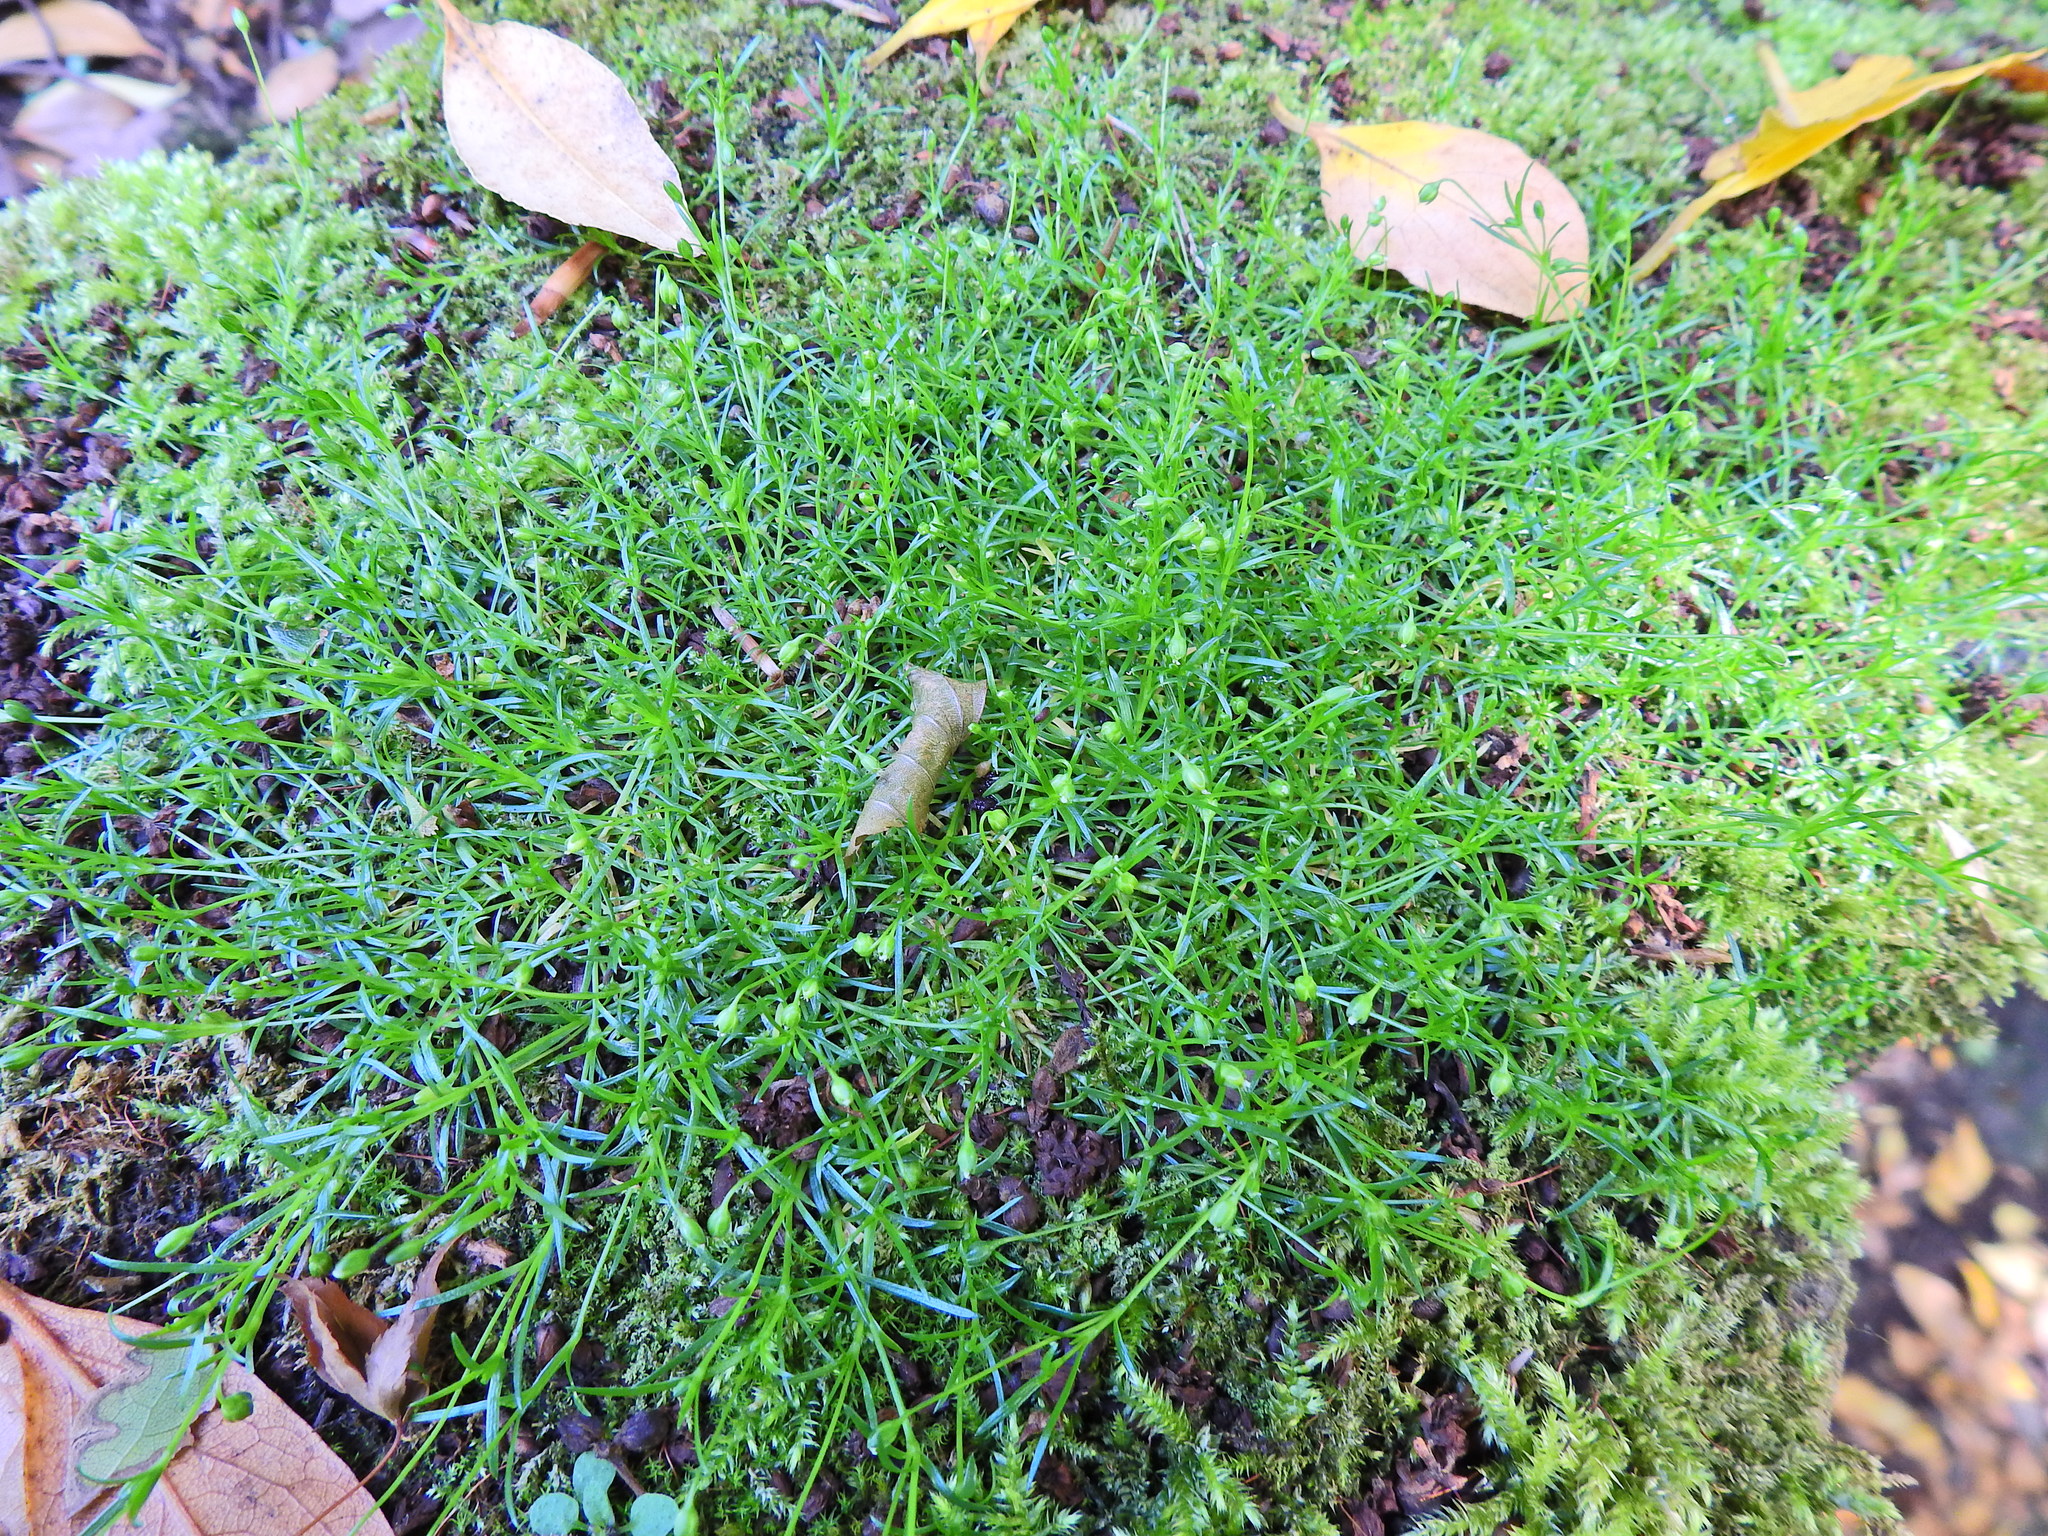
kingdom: Plantae
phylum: Tracheophyta
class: Magnoliopsida
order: Caryophyllales
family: Caryophyllaceae
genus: Sagina
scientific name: Sagina procumbens
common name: Procumbent pearlwort
